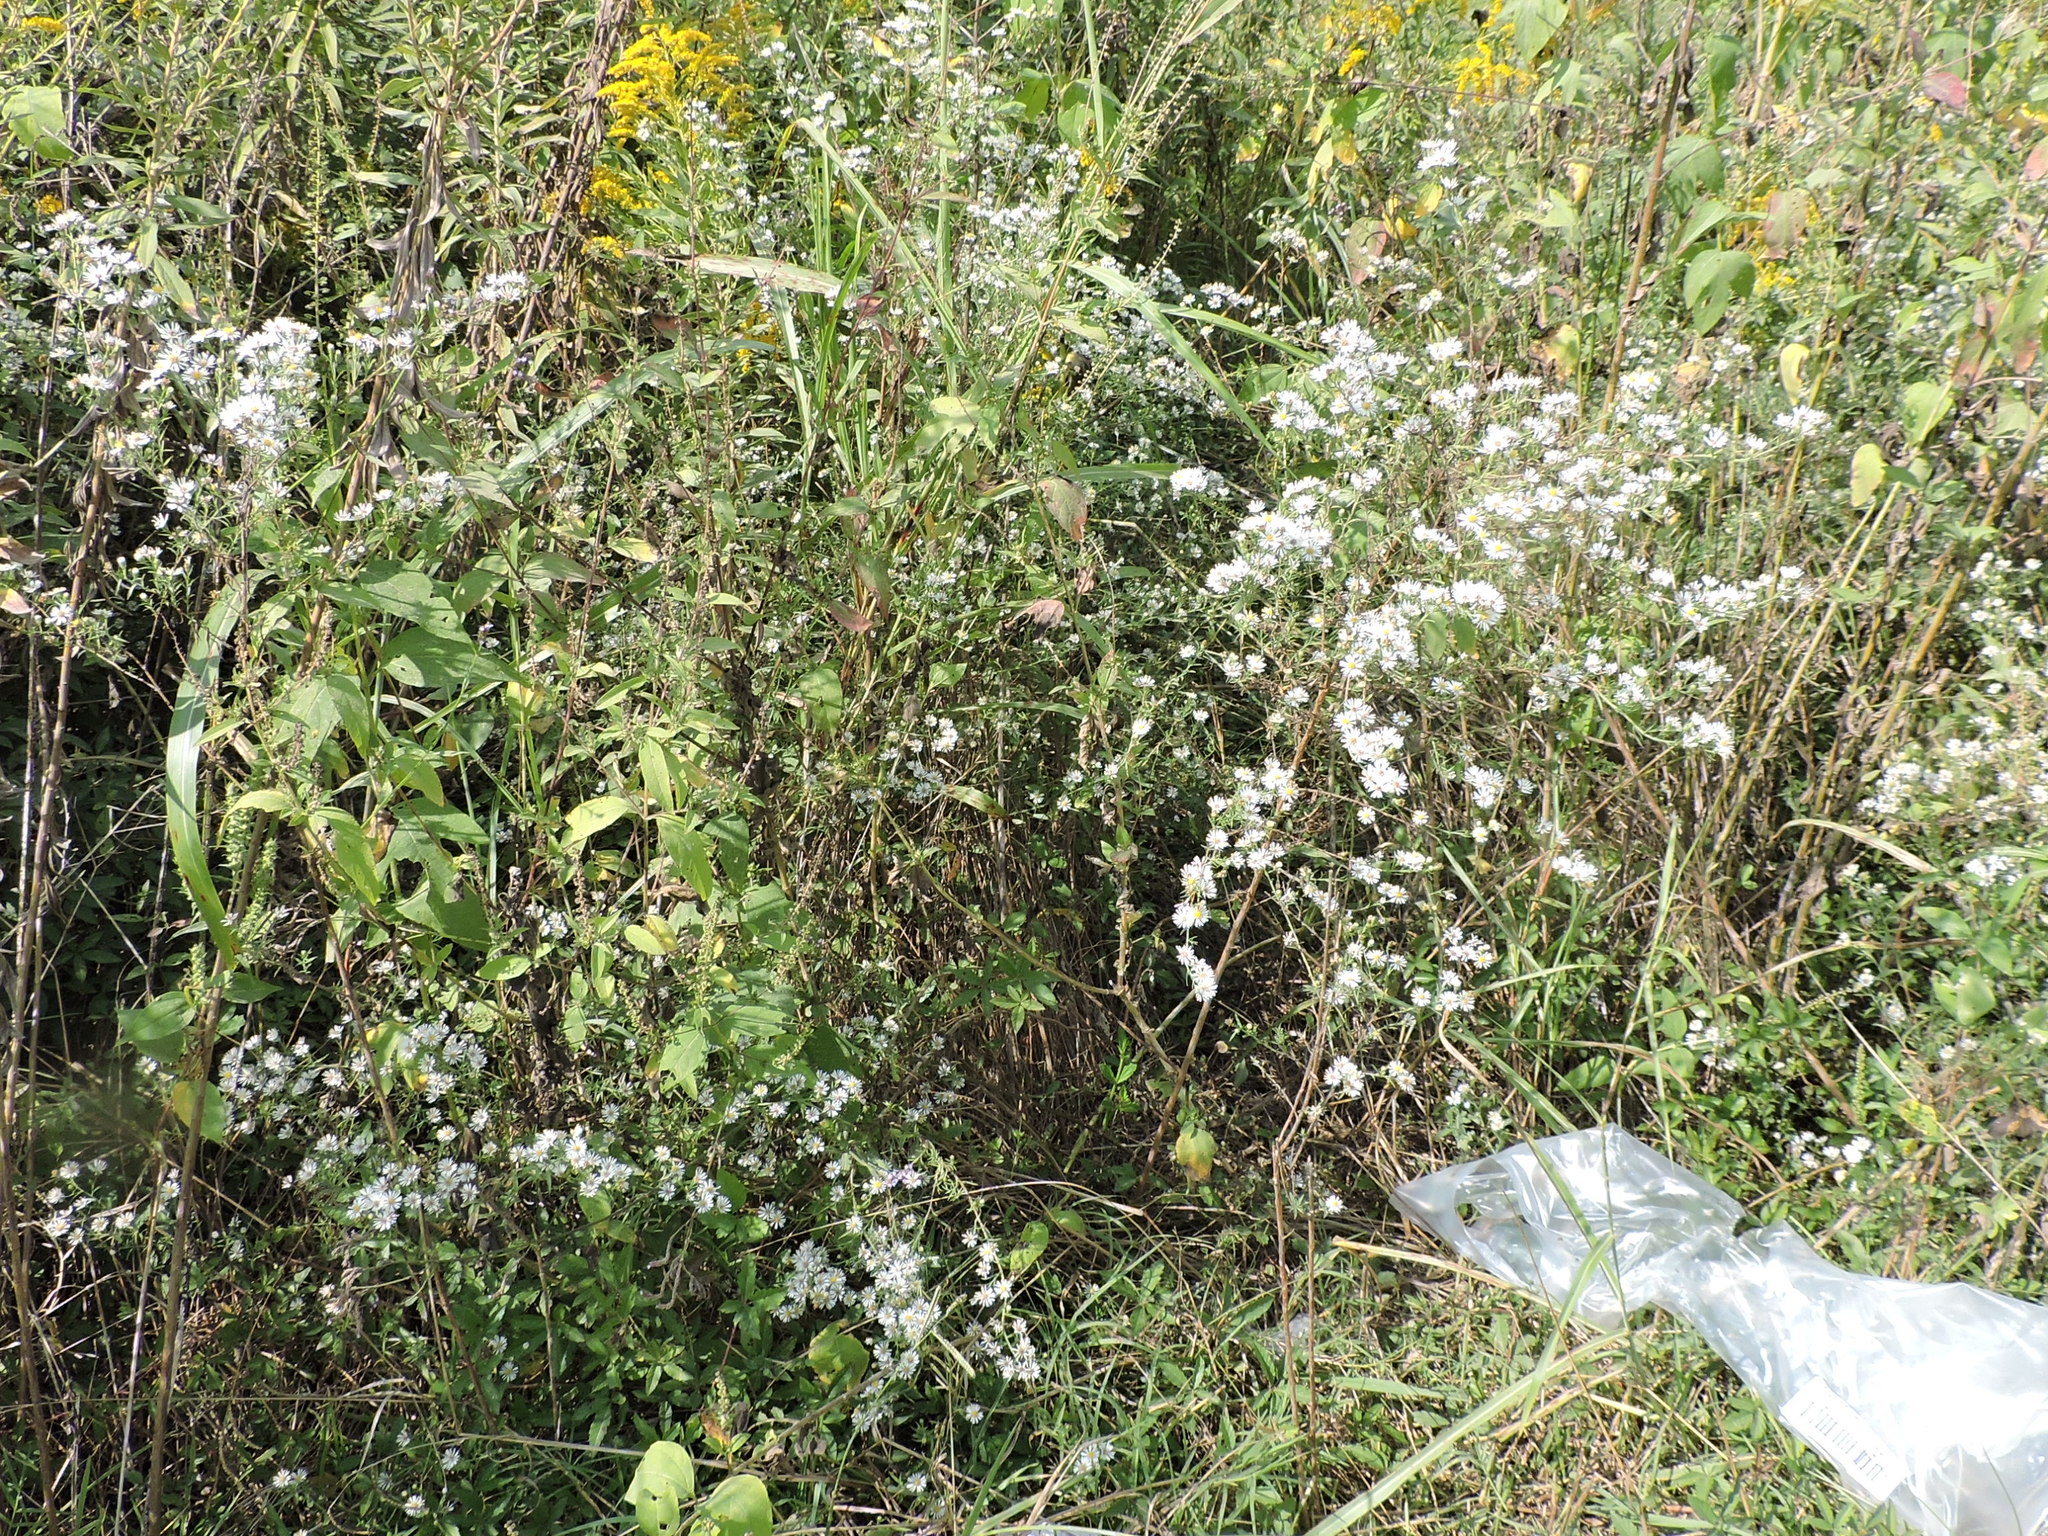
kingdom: Plantae
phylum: Tracheophyta
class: Magnoliopsida
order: Asterales
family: Asteraceae
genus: Symphyotrichum
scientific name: Symphyotrichum ericoides
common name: Heath aster
